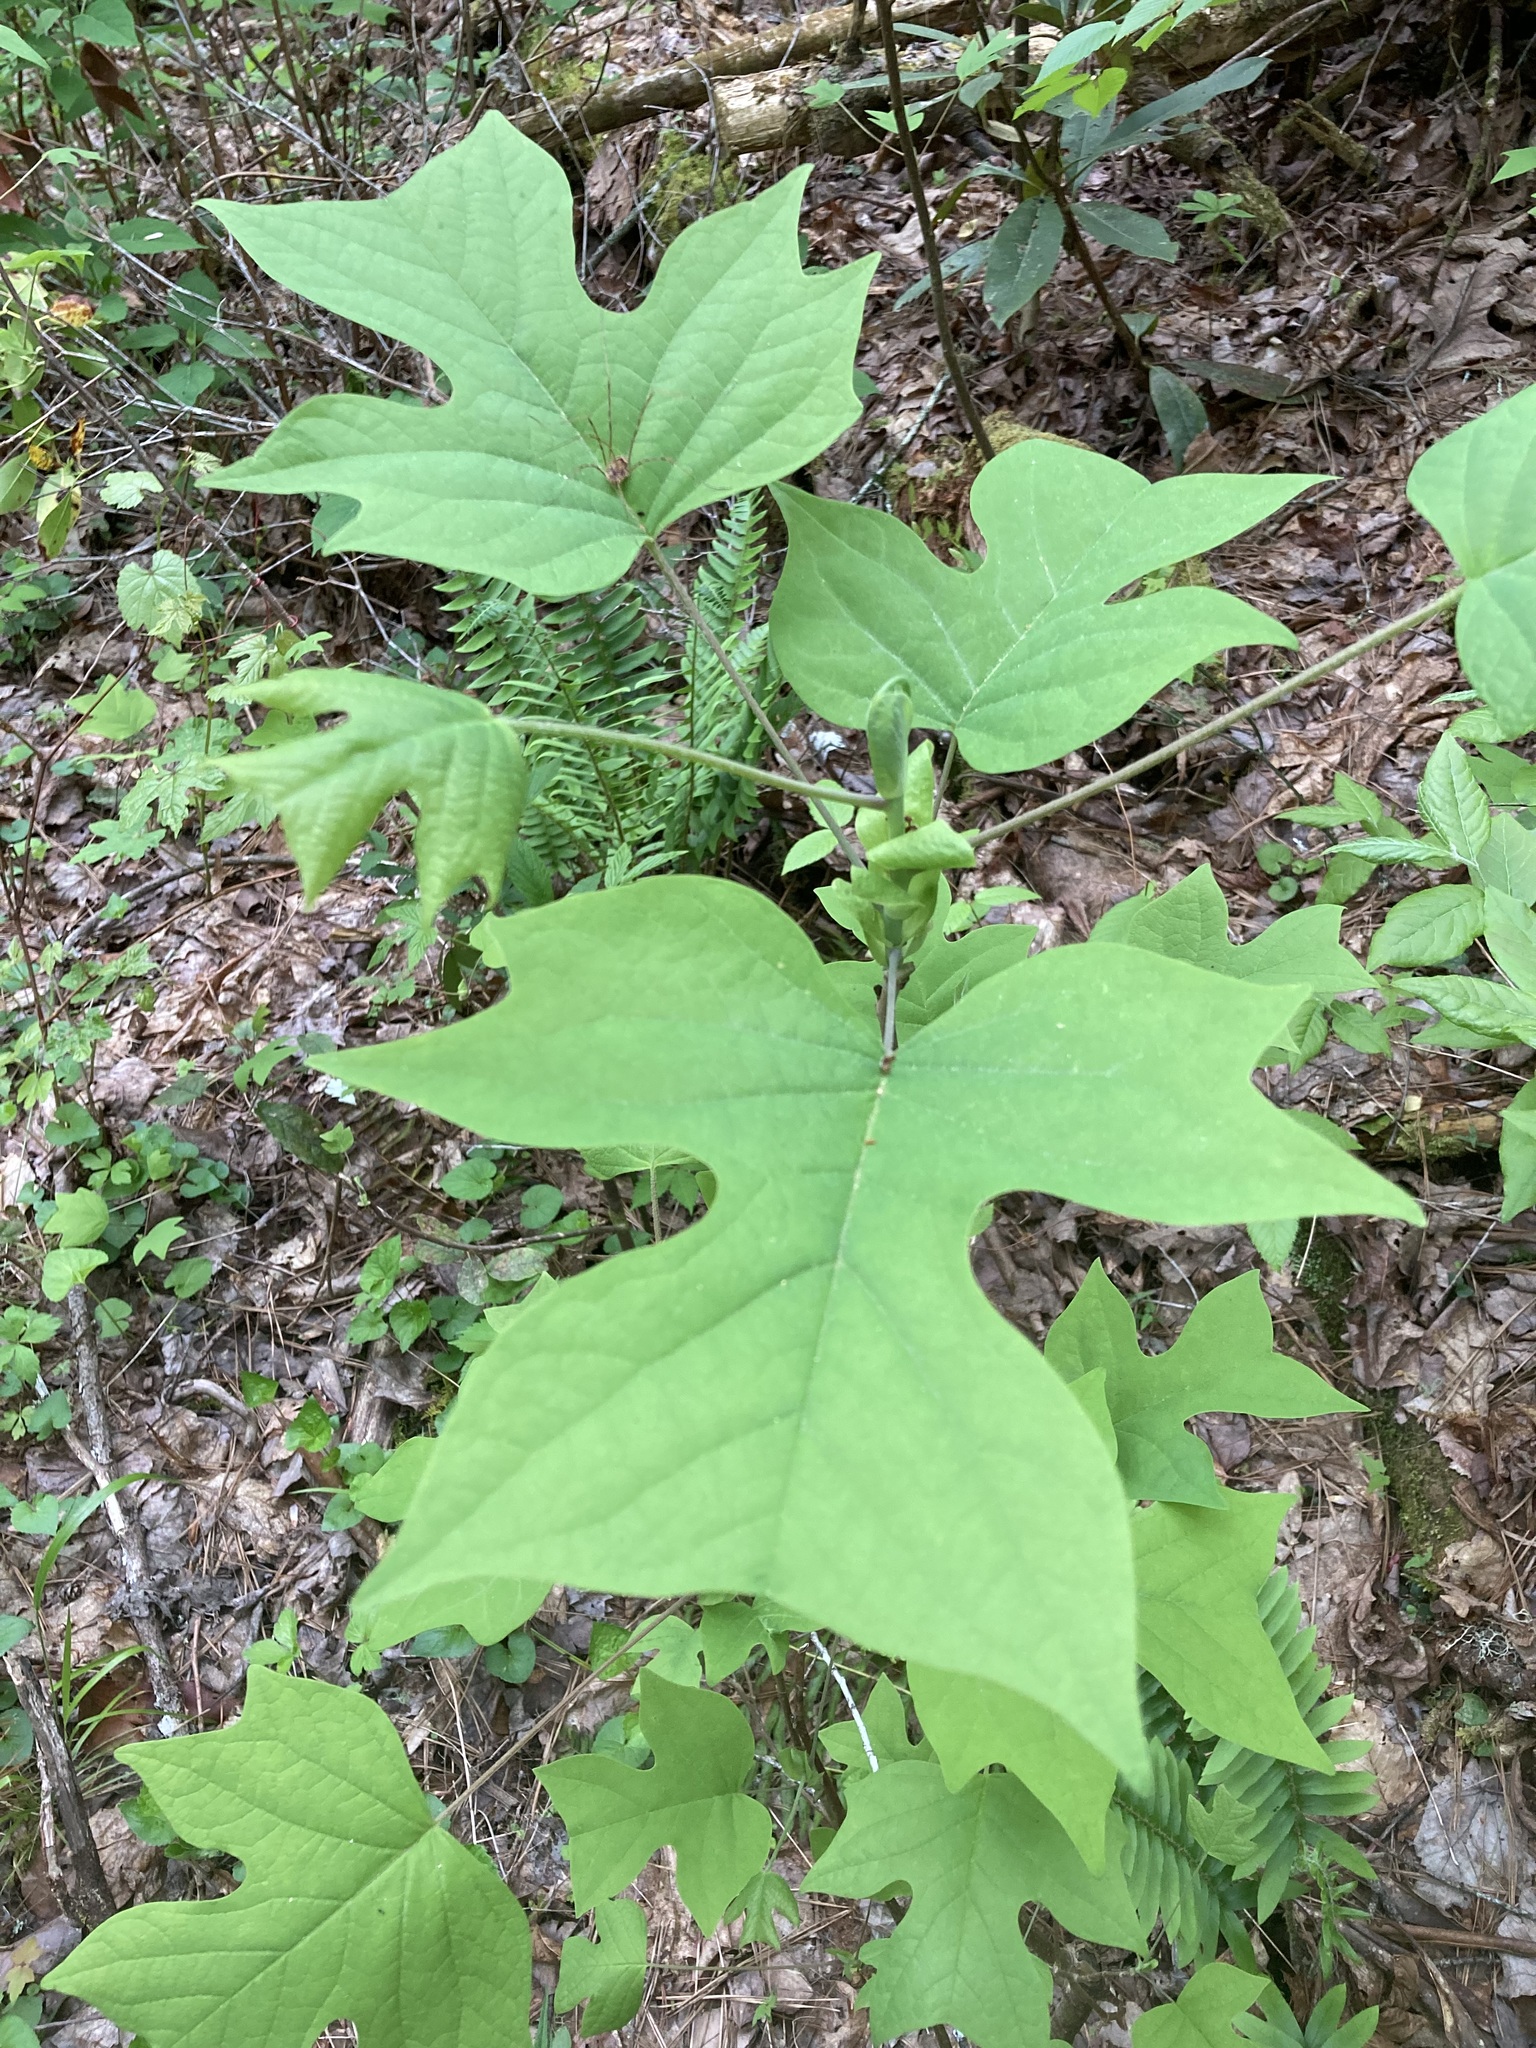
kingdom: Plantae
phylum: Tracheophyta
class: Magnoliopsida
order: Magnoliales
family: Magnoliaceae
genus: Liriodendron
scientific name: Liriodendron tulipifera
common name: Tulip tree
